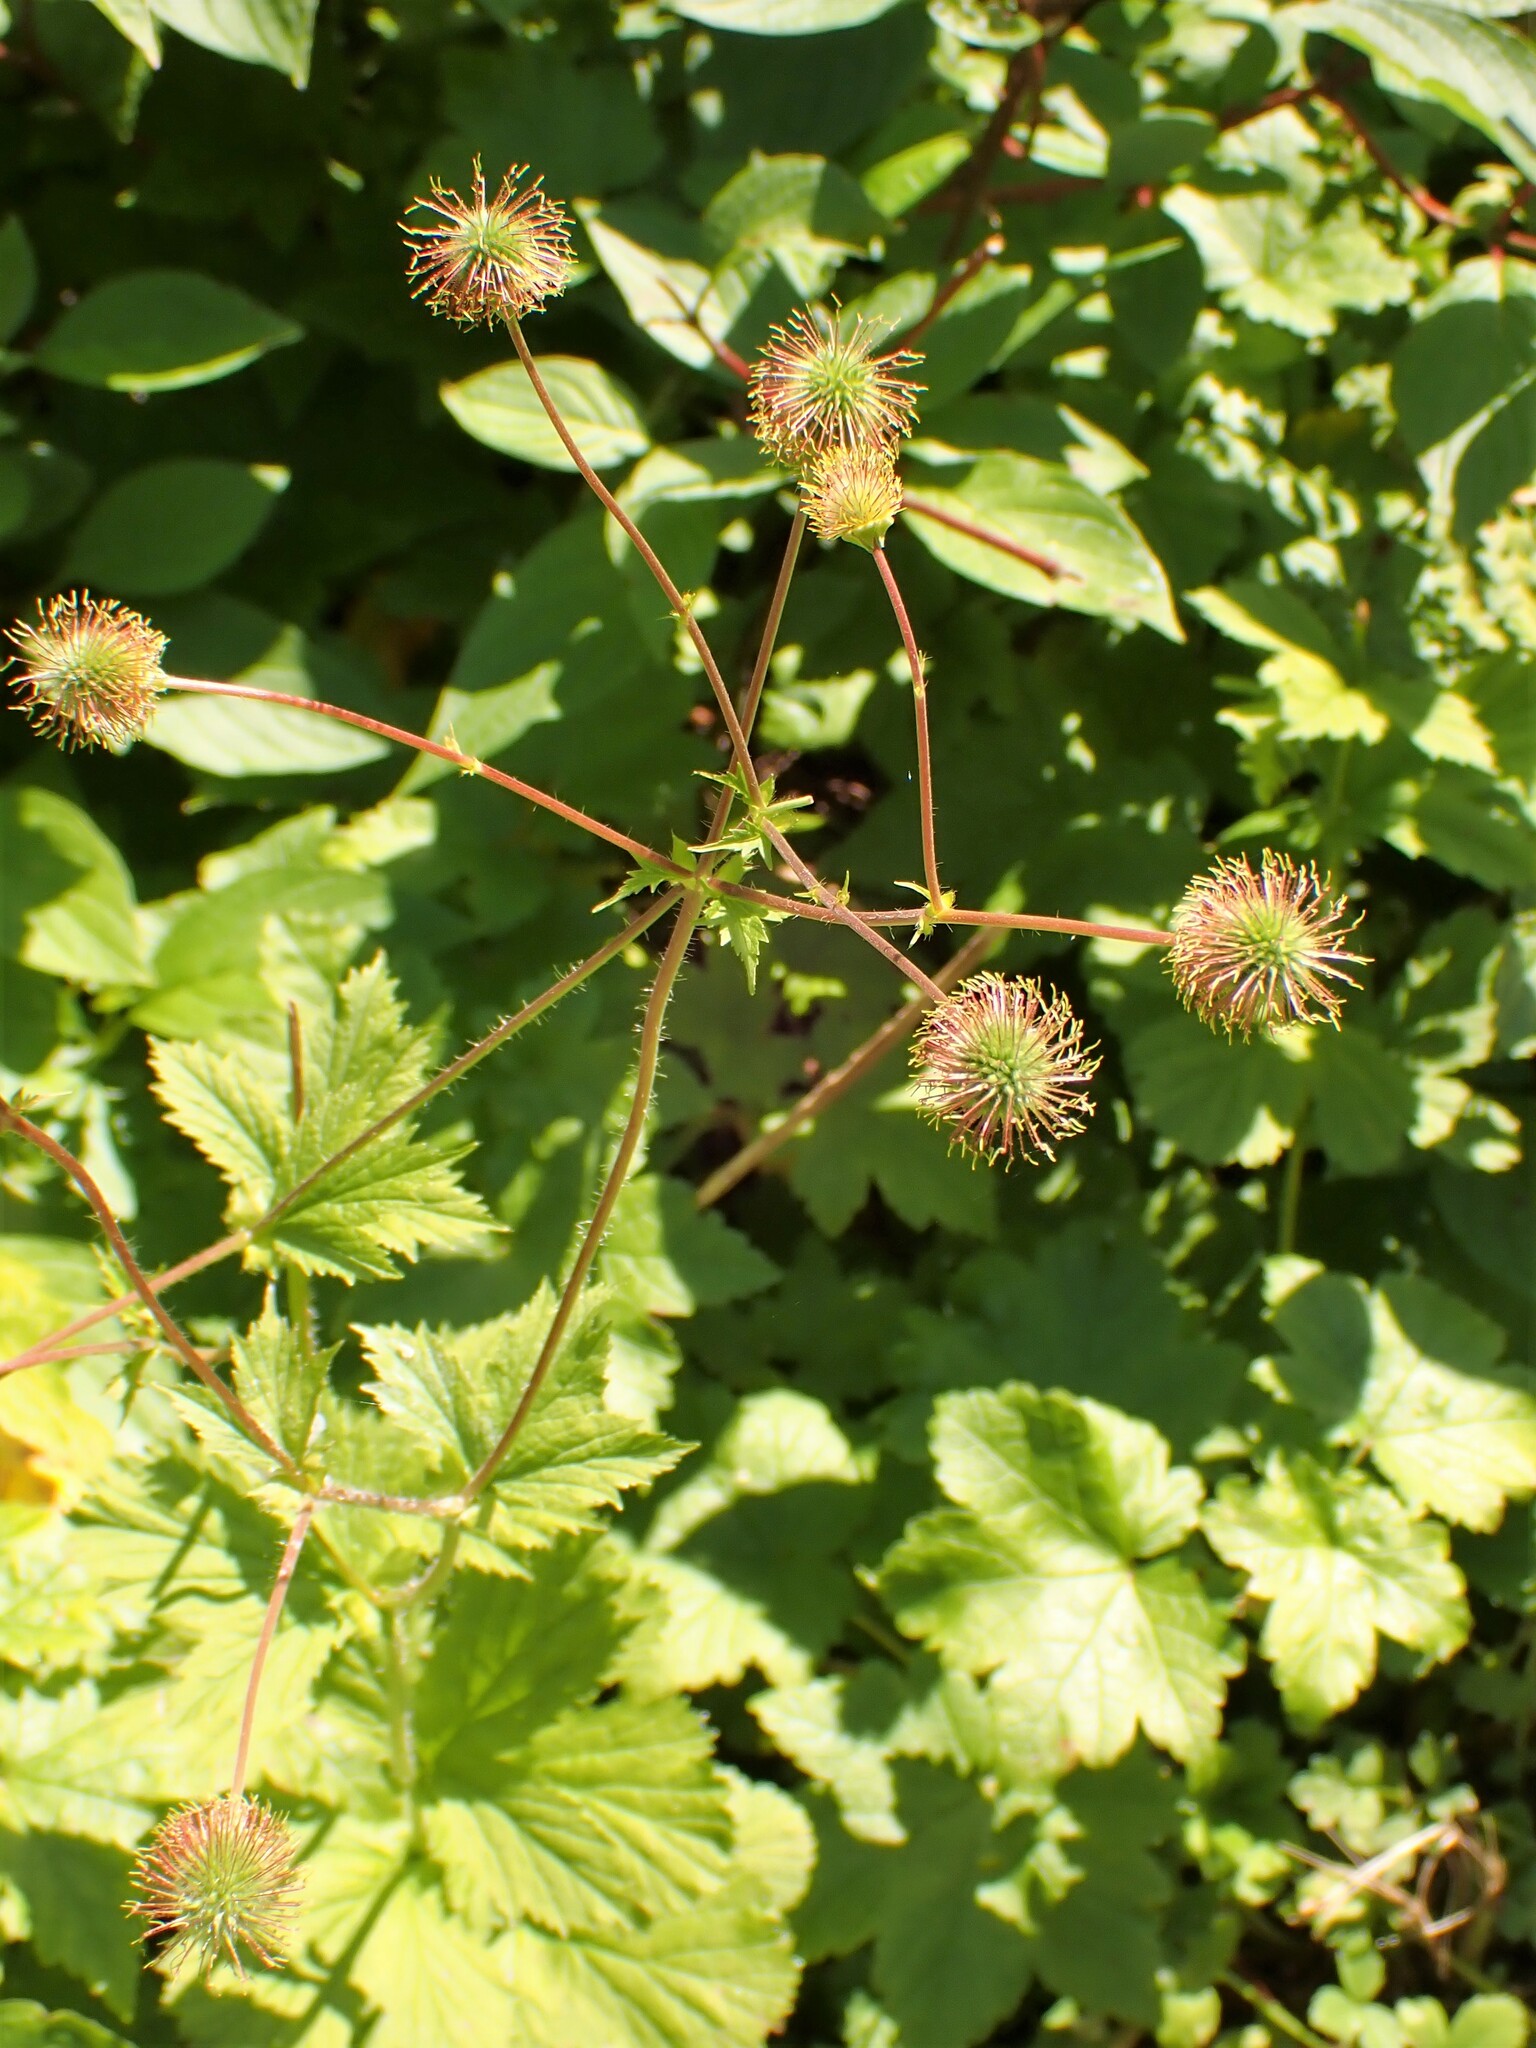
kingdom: Plantae
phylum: Tracheophyta
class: Magnoliopsida
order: Rosales
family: Rosaceae
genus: Geum
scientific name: Geum macrophyllum
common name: Large-leaved avens
